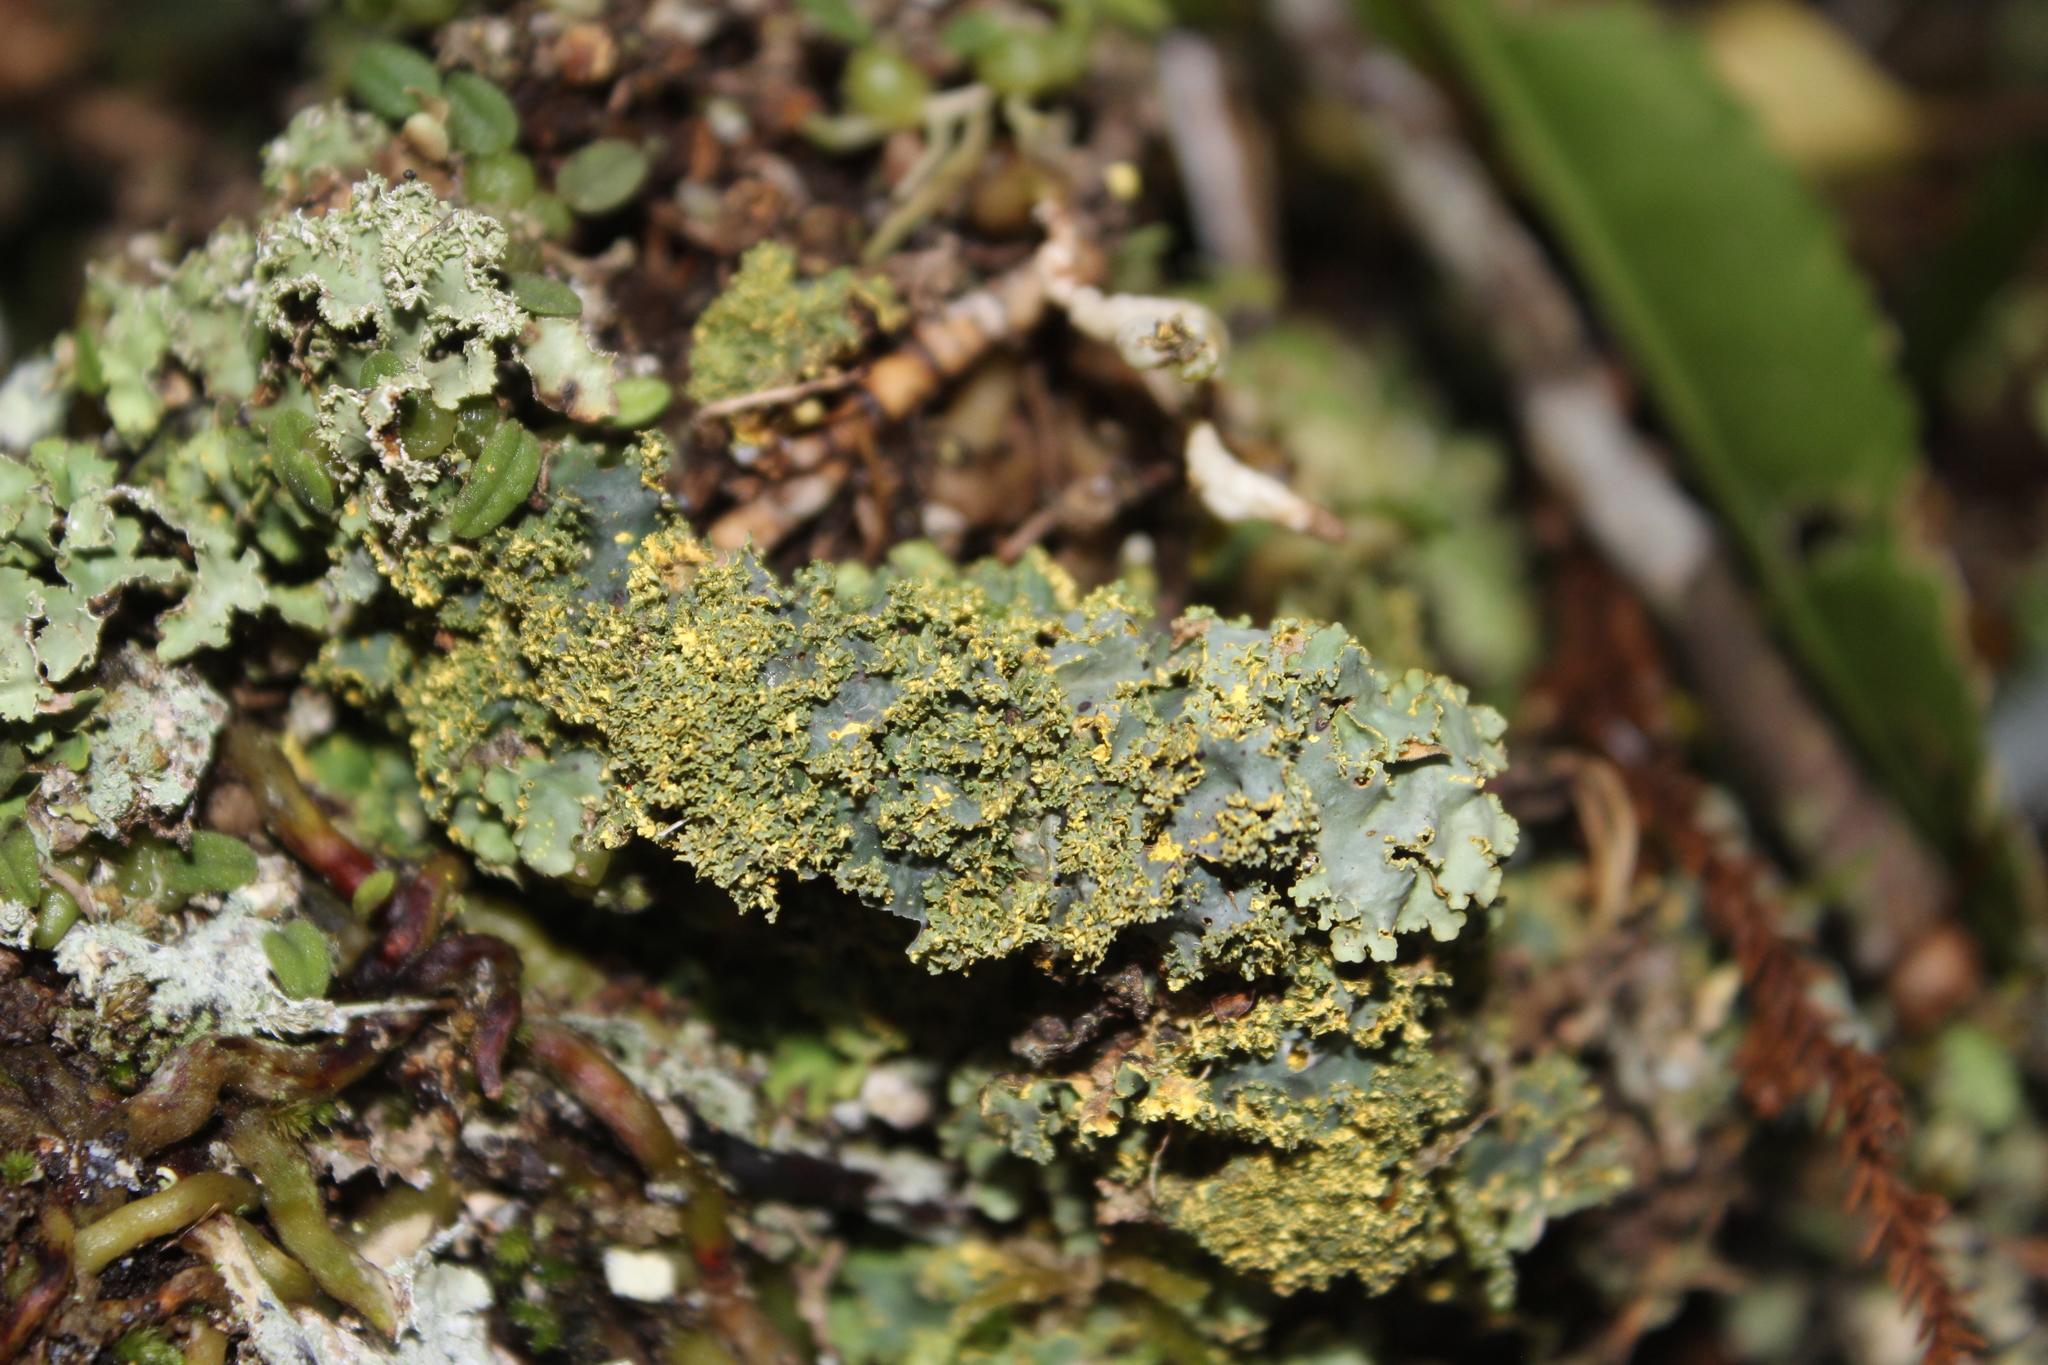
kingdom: Fungi
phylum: Ascomycota
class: Lecanoromycetes
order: Peltigerales
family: Lobariaceae
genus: Podostictina
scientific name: Podostictina pickeringii
